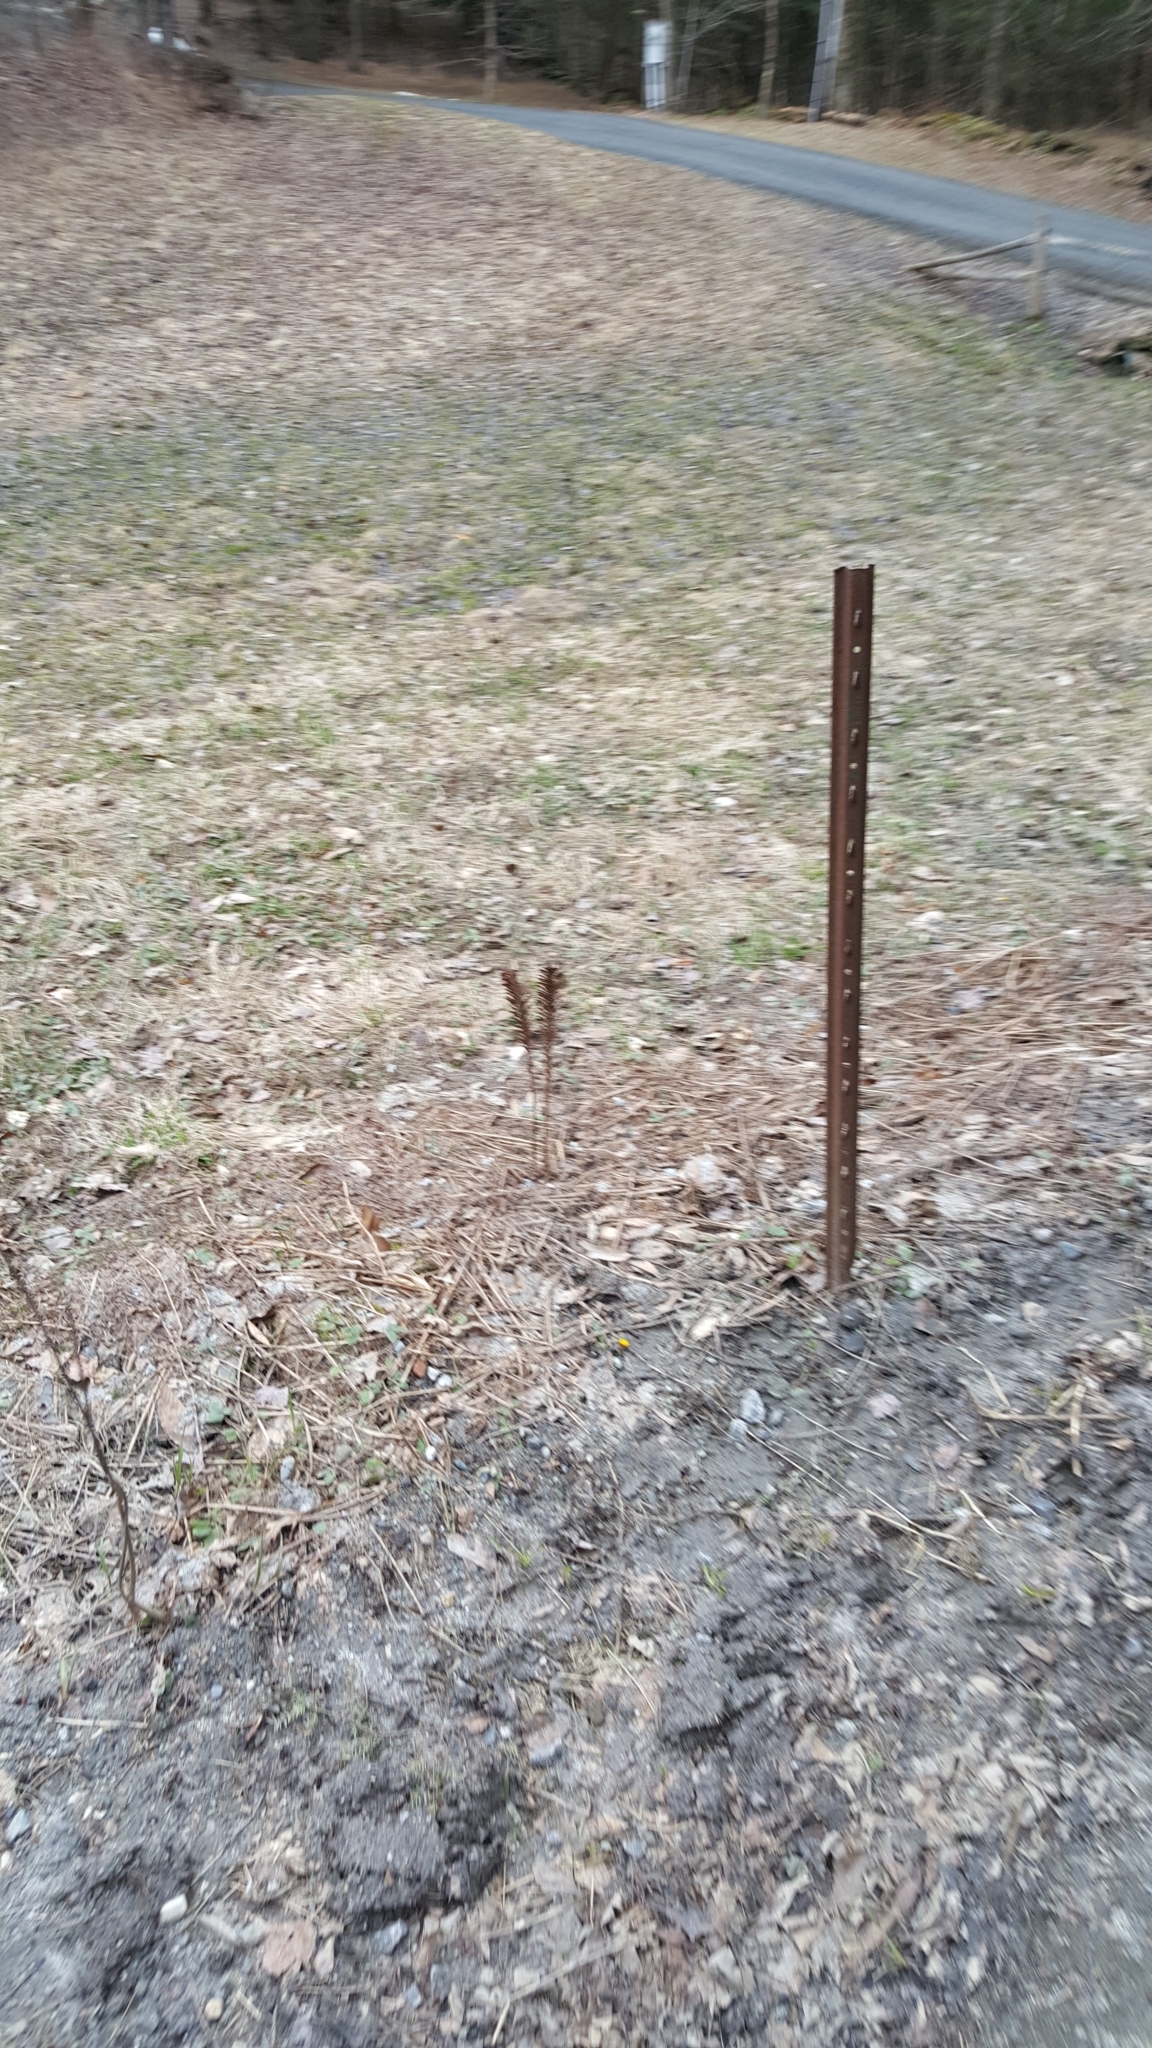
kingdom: Plantae
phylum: Tracheophyta
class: Polypodiopsida
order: Polypodiales
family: Onocleaceae
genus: Matteuccia
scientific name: Matteuccia struthiopteris
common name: Ostrich fern
